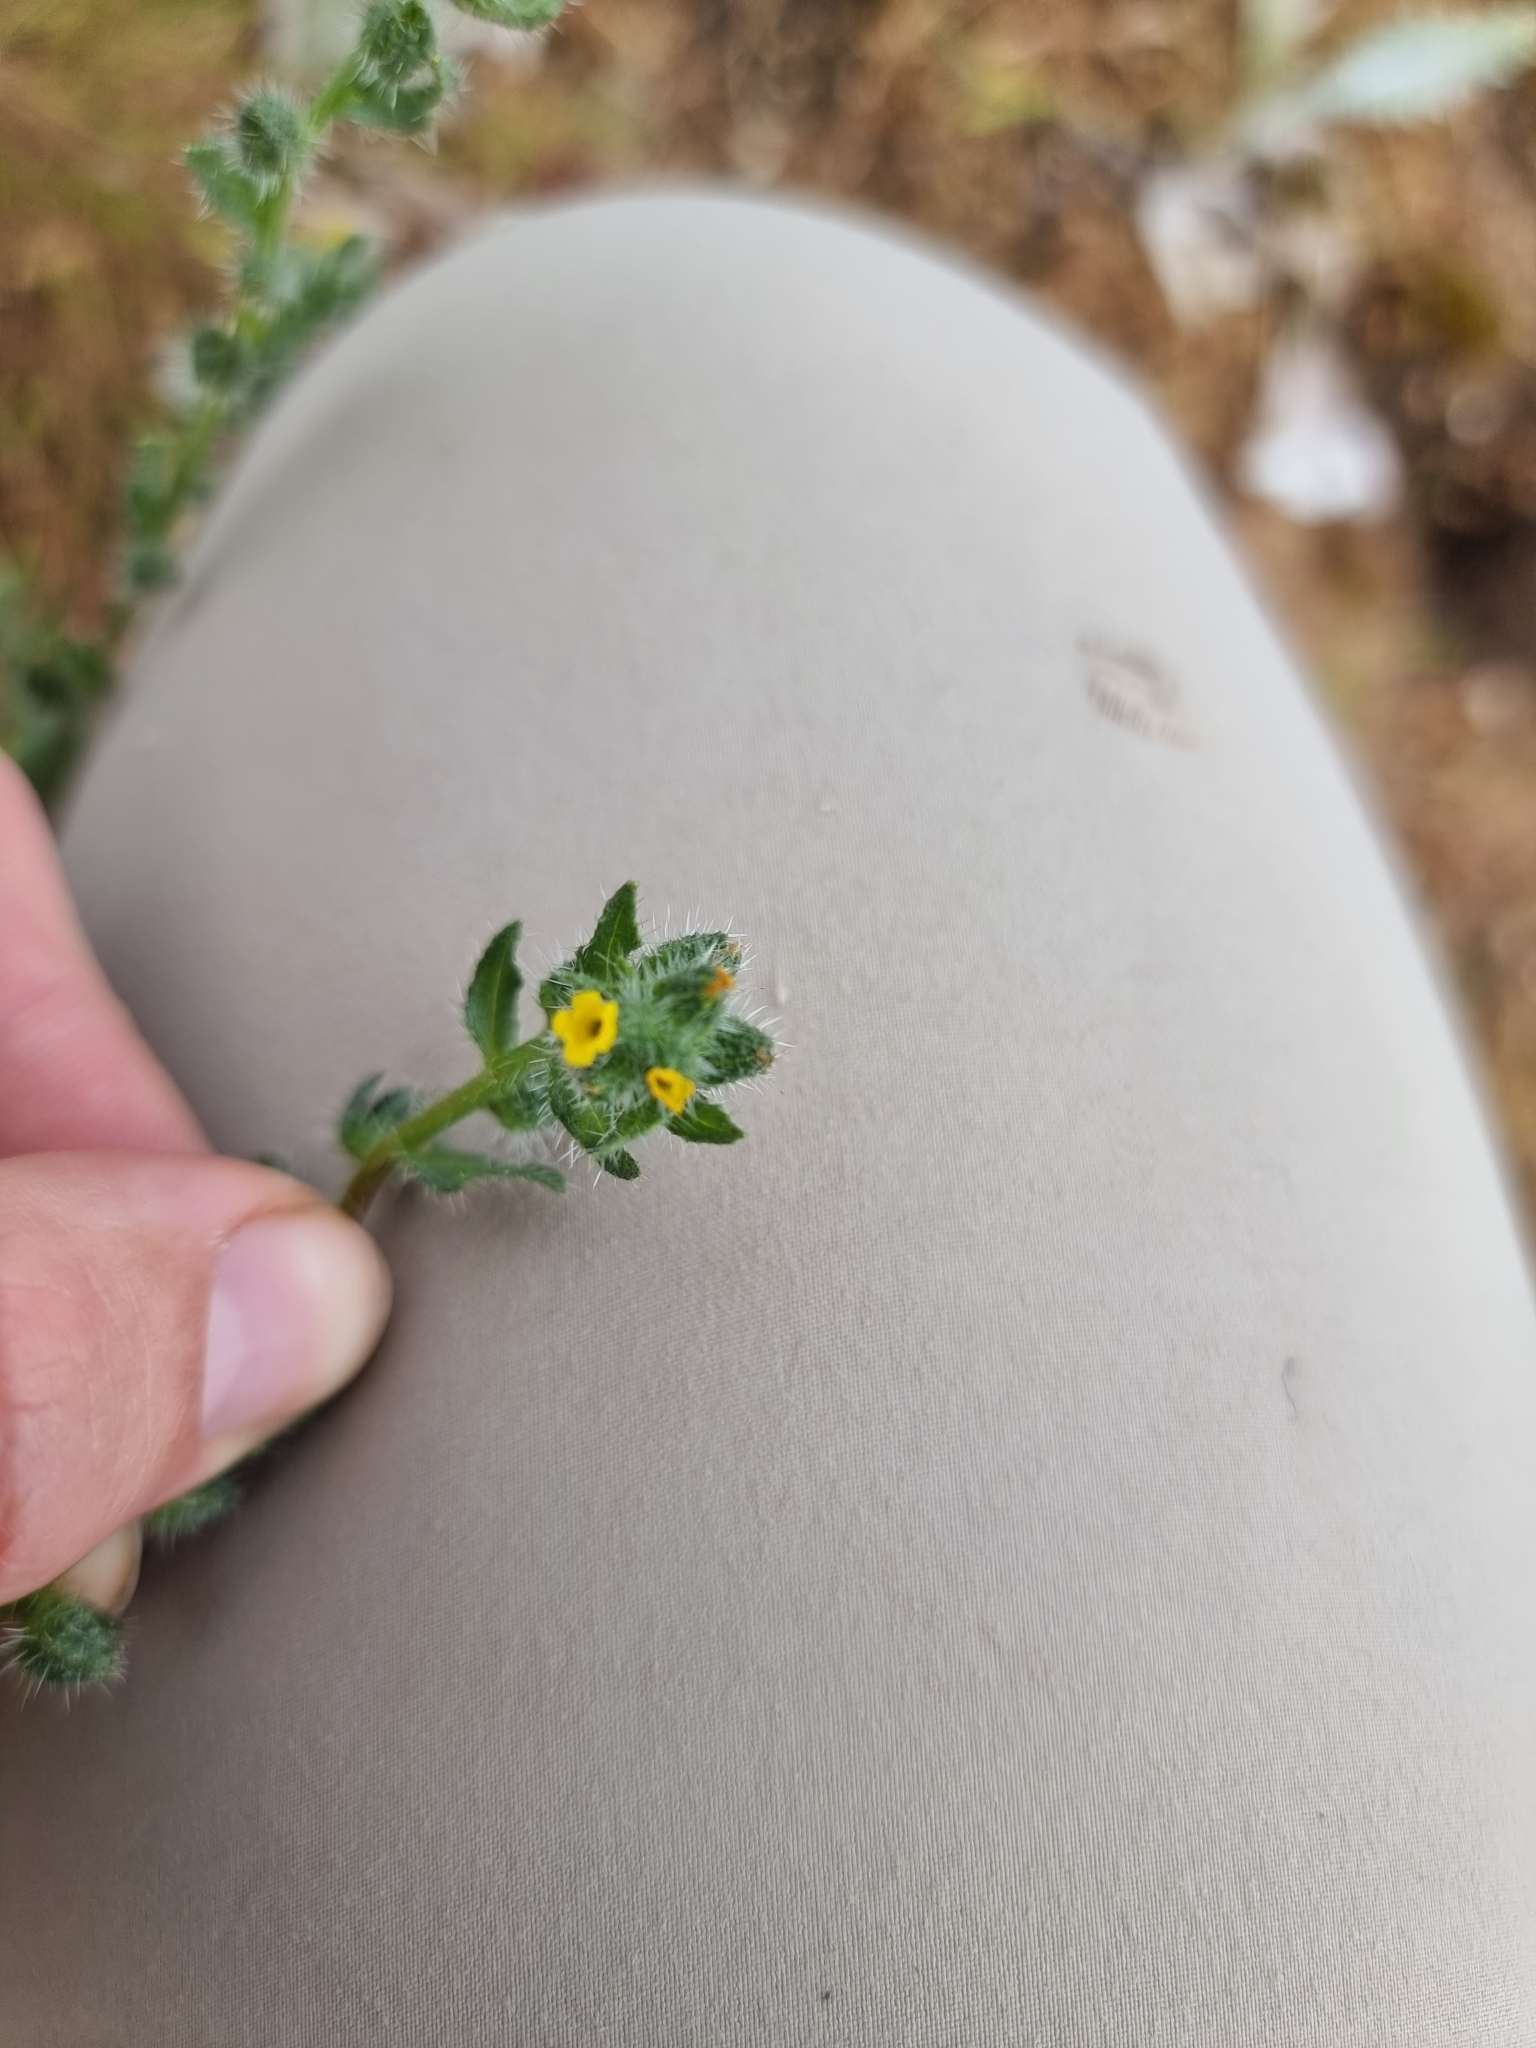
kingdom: Plantae
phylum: Tracheophyta
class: Magnoliopsida
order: Boraginales
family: Boraginaceae
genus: Amsinckia
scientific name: Amsinckia menziesii
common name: Menzies' fiddleneck
